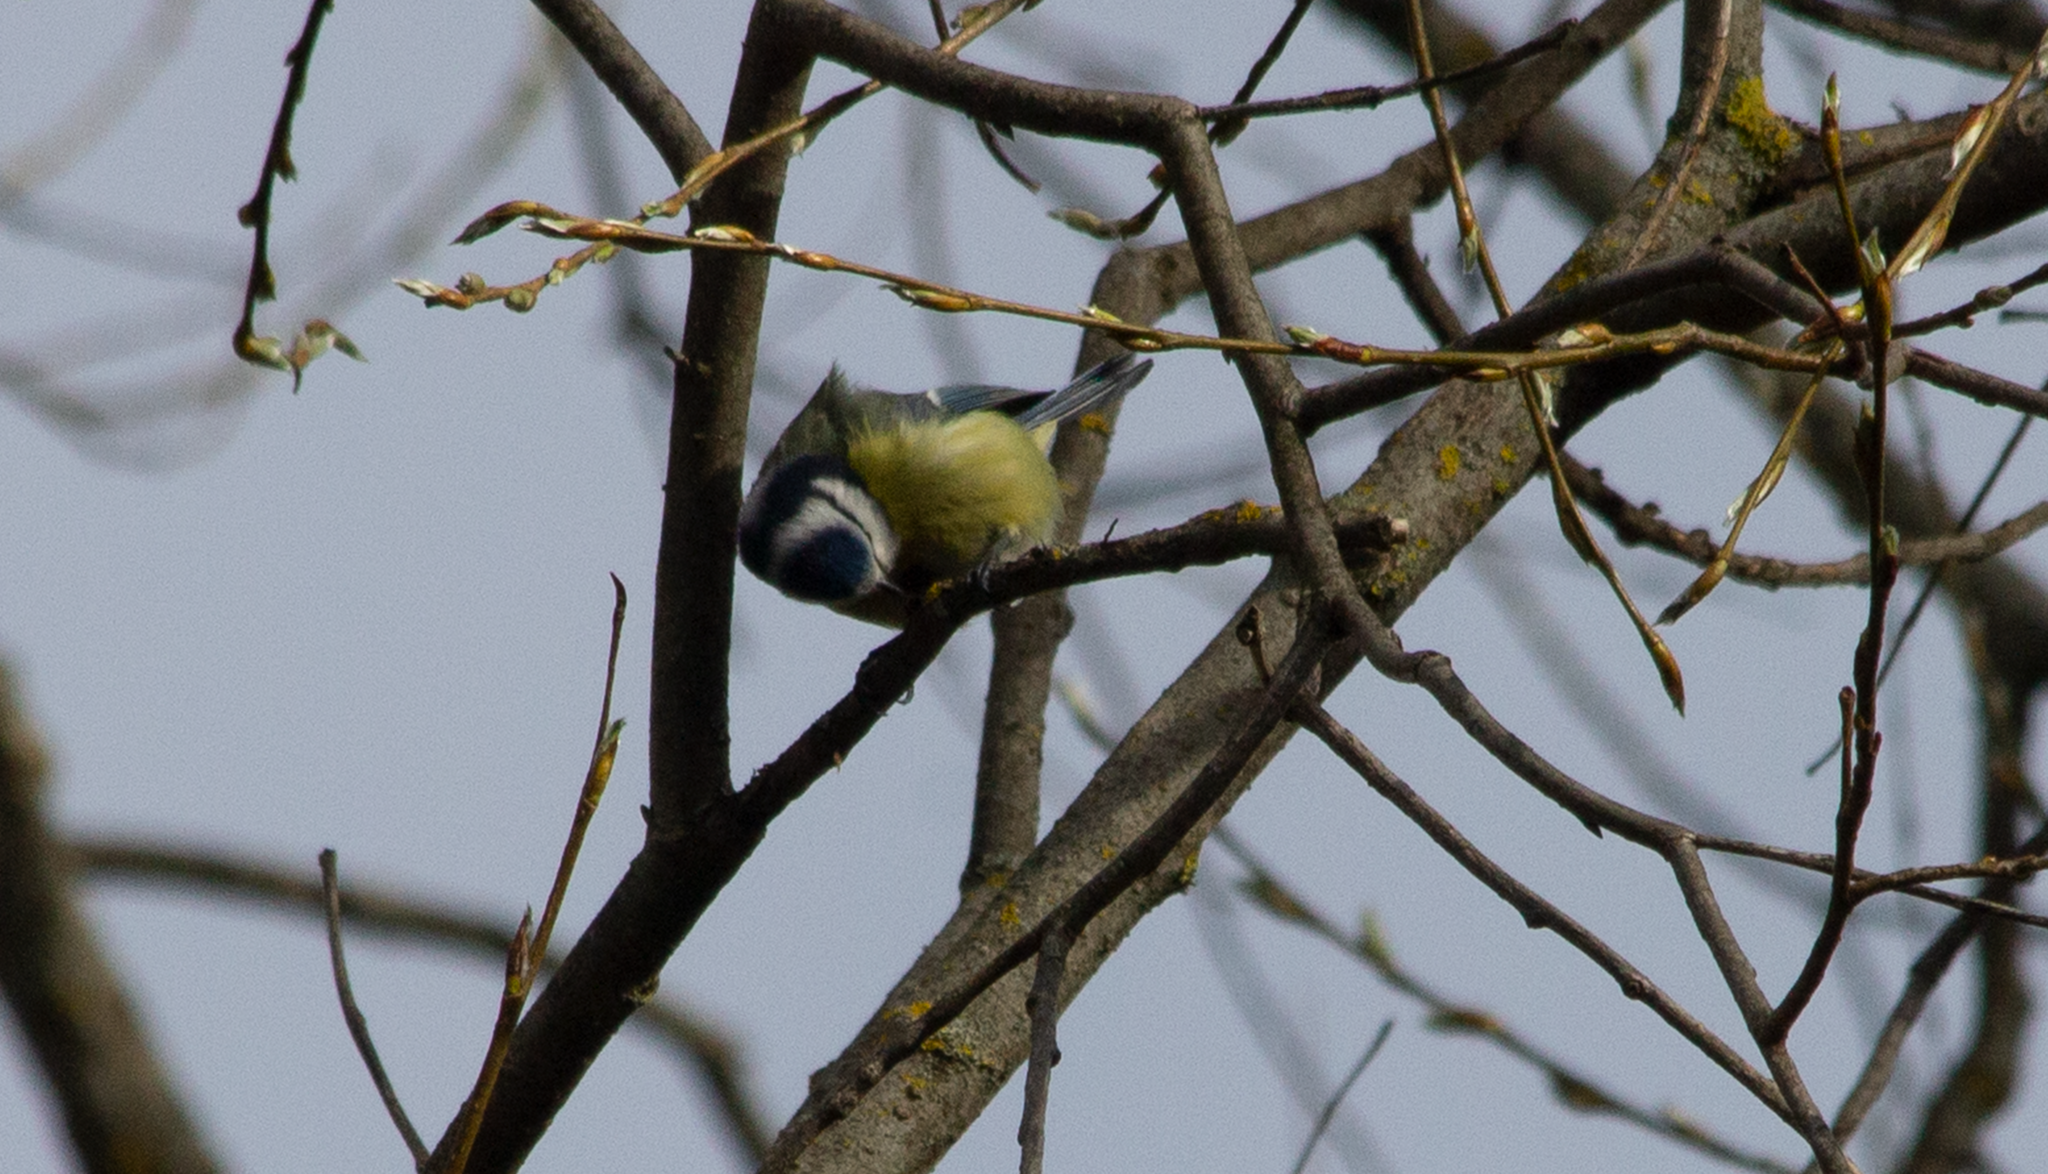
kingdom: Animalia
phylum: Chordata
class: Aves
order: Passeriformes
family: Paridae
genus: Cyanistes
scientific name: Cyanistes caeruleus
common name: Eurasian blue tit
